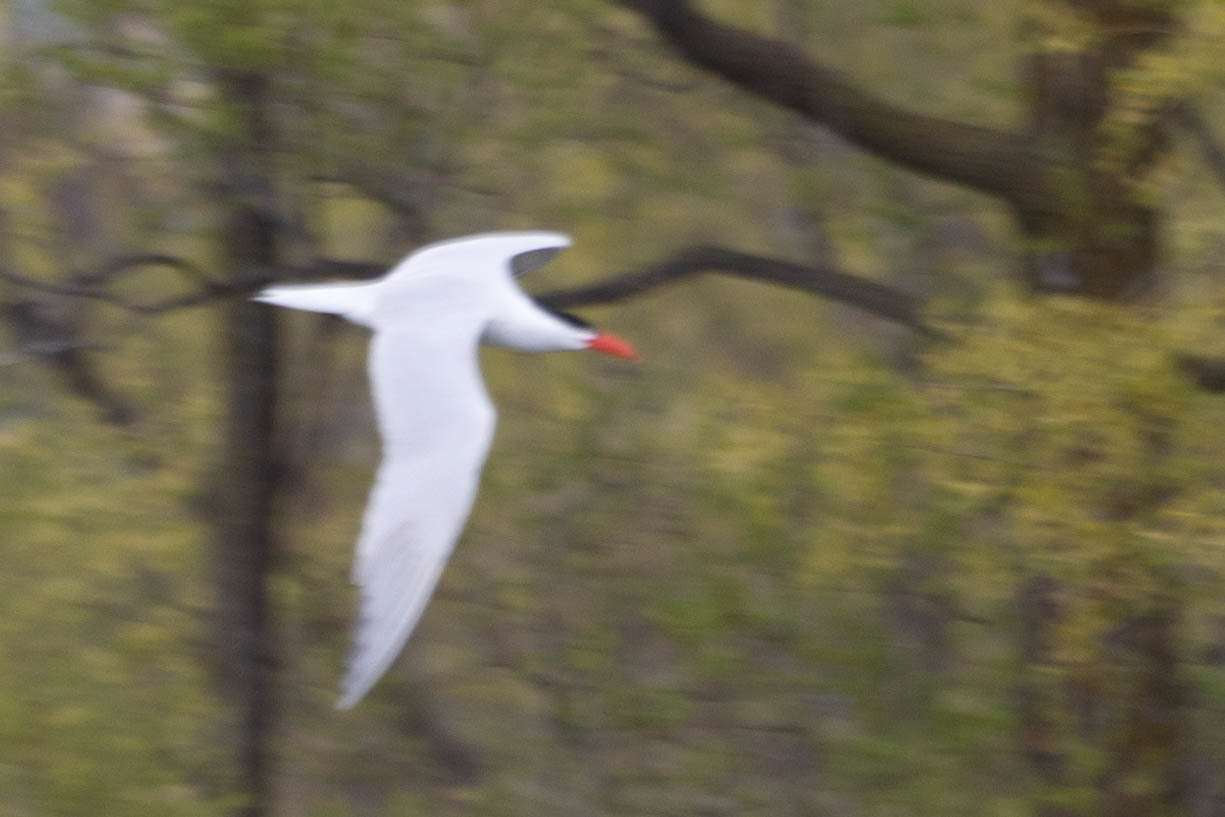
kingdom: Animalia
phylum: Chordata
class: Aves
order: Charadriiformes
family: Laridae
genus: Hydroprogne
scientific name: Hydroprogne caspia
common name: Caspian tern
